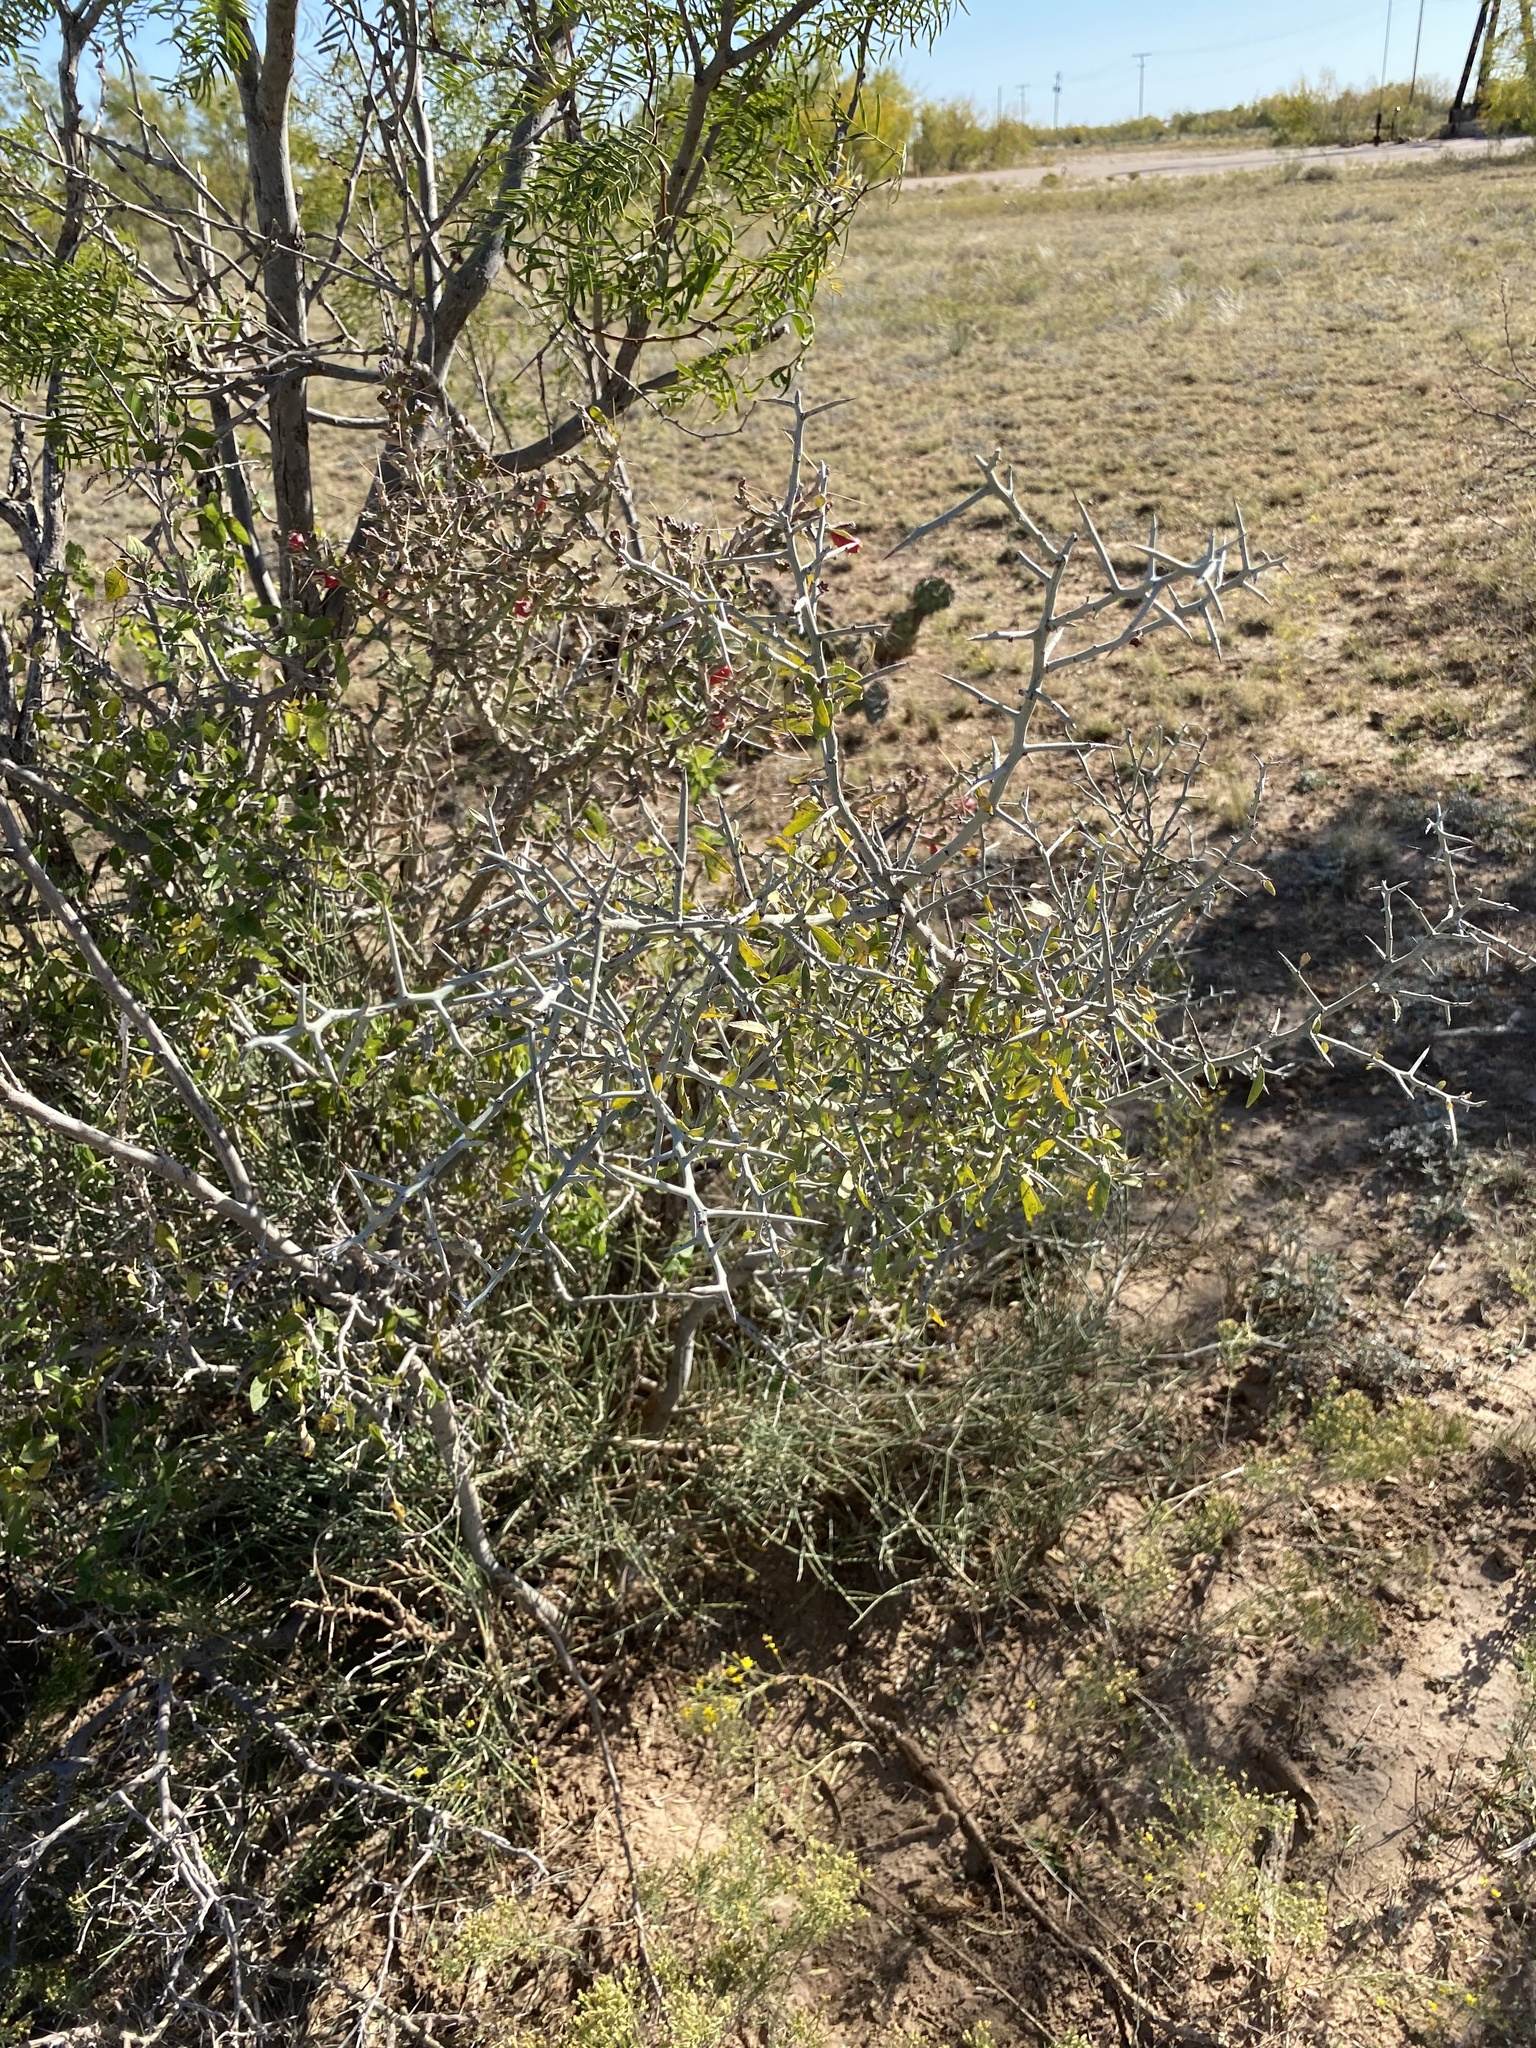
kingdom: Plantae
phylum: Tracheophyta
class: Magnoliopsida
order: Rosales
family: Rhamnaceae
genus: Sarcomphalus
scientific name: Sarcomphalus obtusifolius
